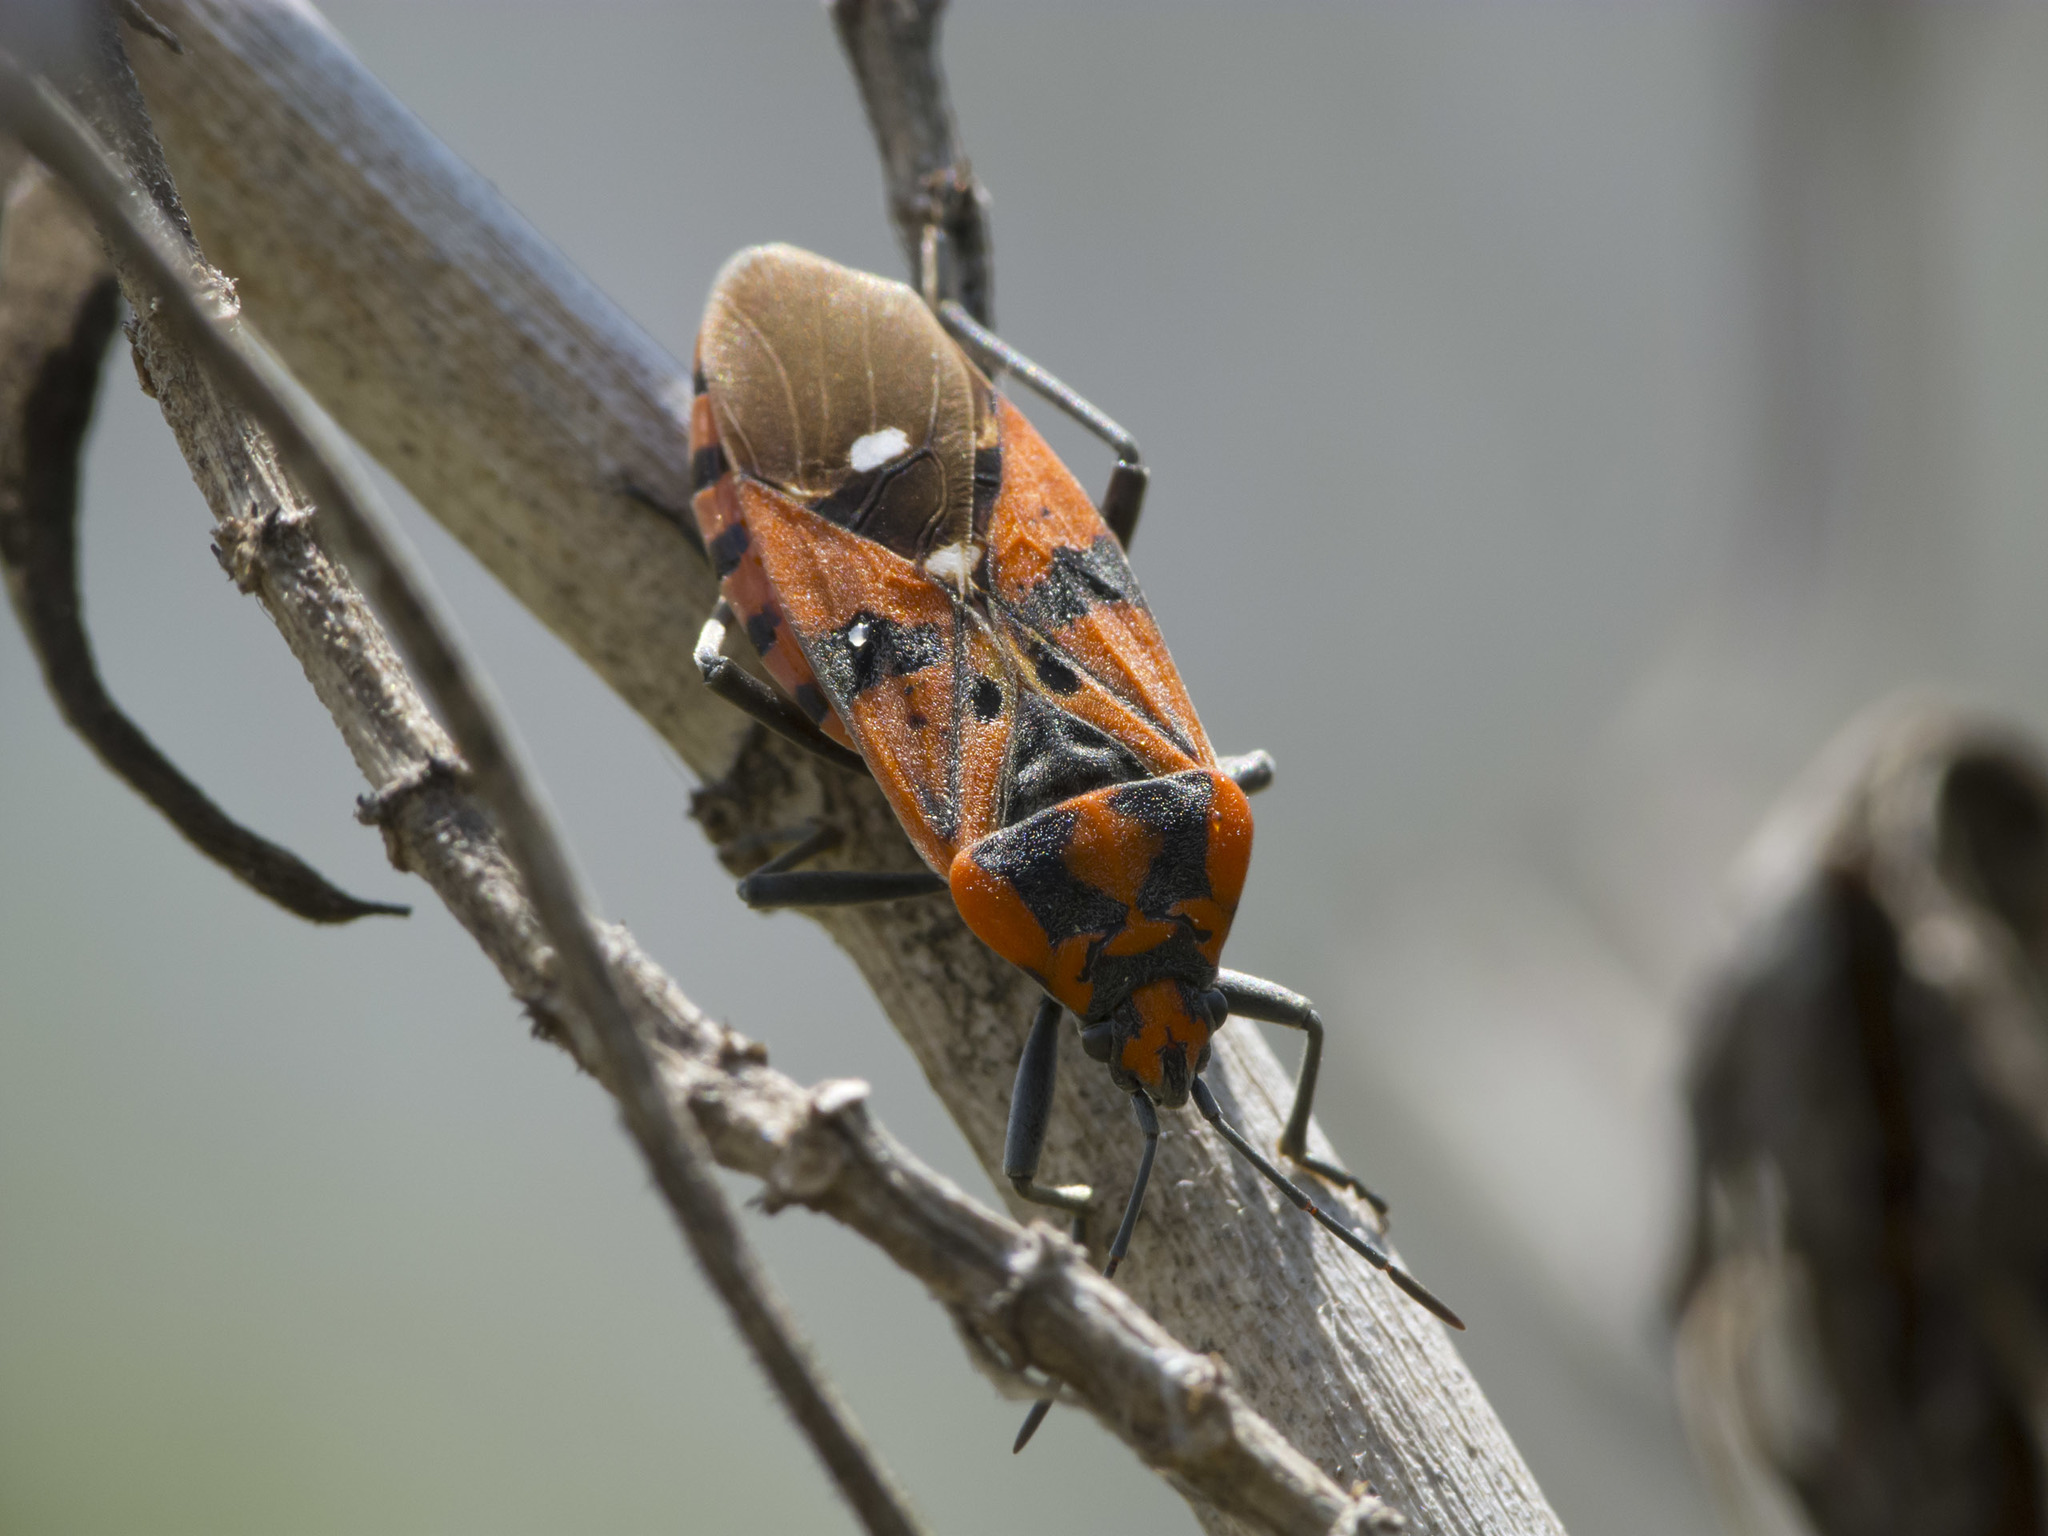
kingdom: Animalia
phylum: Arthropoda
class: Insecta
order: Hemiptera
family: Lygaeidae
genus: Spilostethus
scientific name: Spilostethus pandurus
